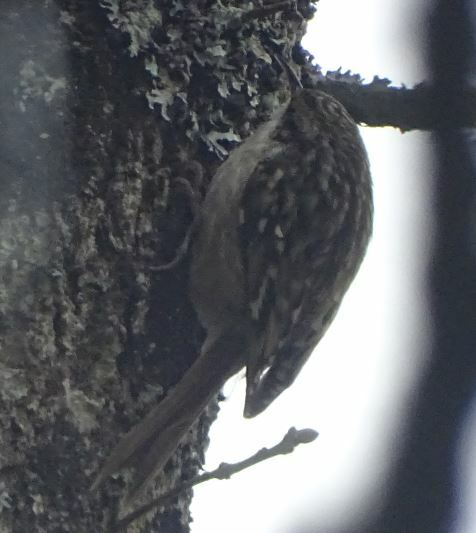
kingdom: Animalia
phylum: Chordata
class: Aves
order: Passeriformes
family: Certhiidae
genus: Certhia
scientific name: Certhia brachydactyla
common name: Short-toed treecreeper
